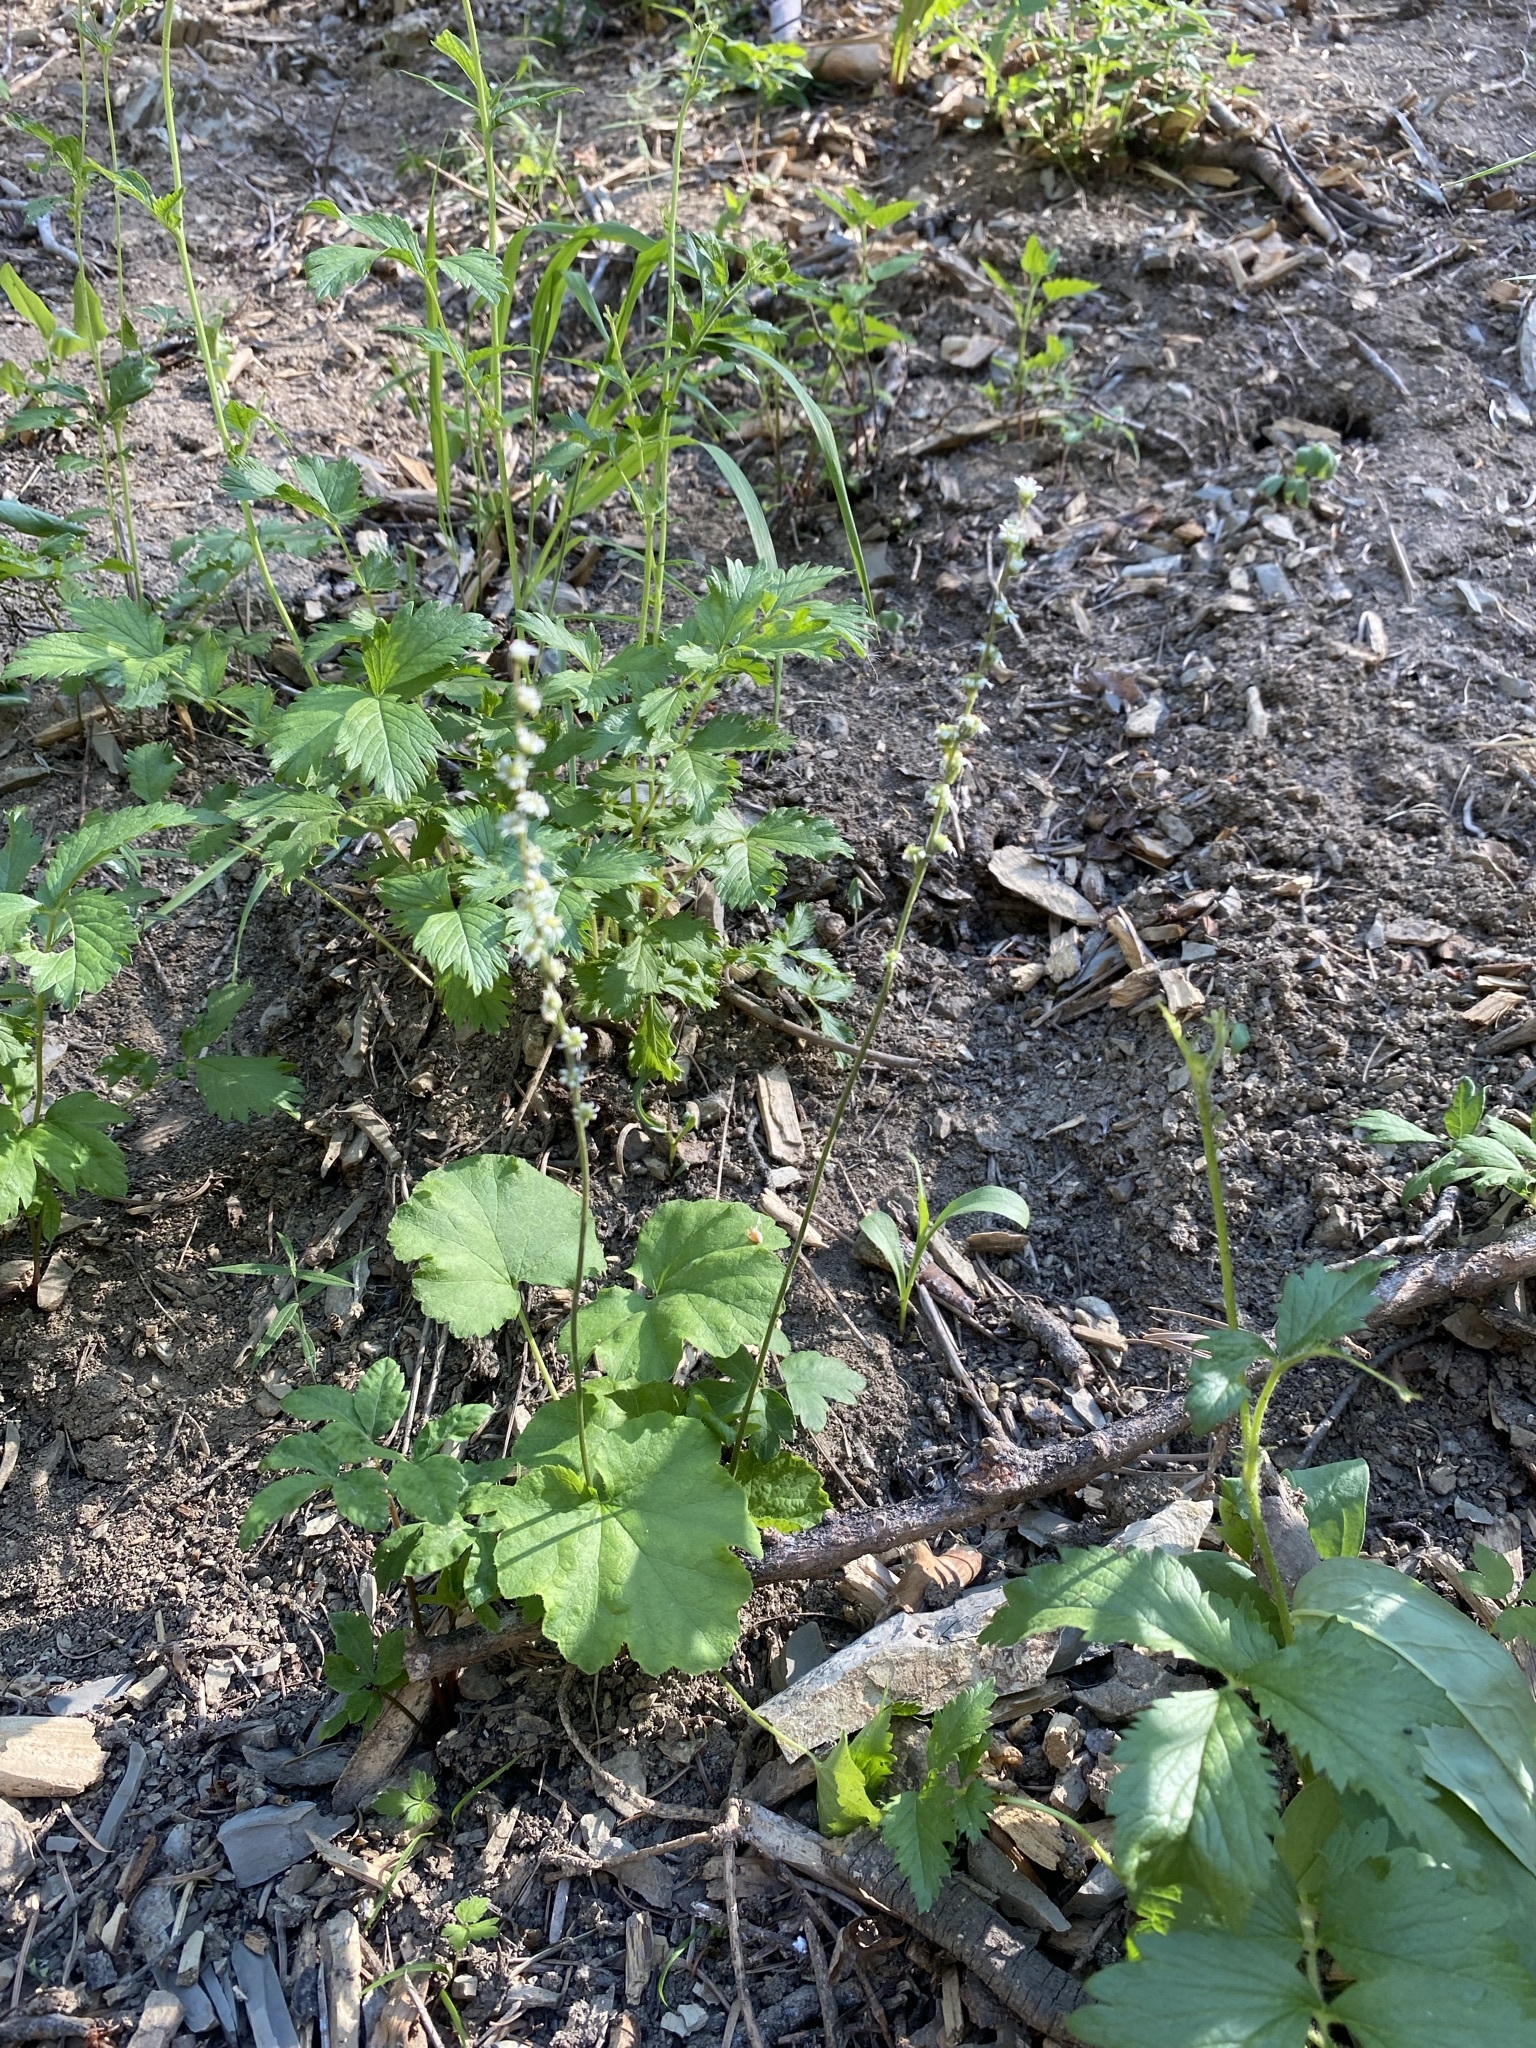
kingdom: Plantae
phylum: Tracheophyta
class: Magnoliopsida
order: Saxifragales
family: Saxifragaceae
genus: Ozomelis
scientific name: Ozomelis stauropetala
